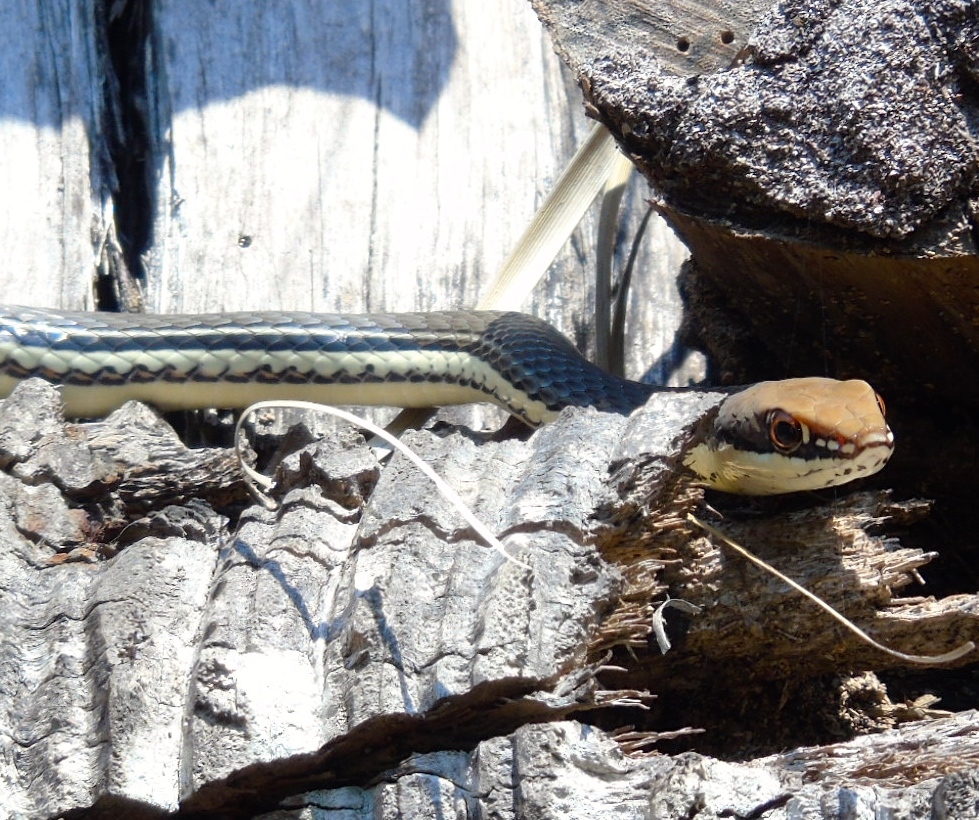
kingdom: Animalia
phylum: Chordata
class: Squamata
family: Colubridae
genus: Masticophis
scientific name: Masticophis bilineatus
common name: Sonoran whipsnake
